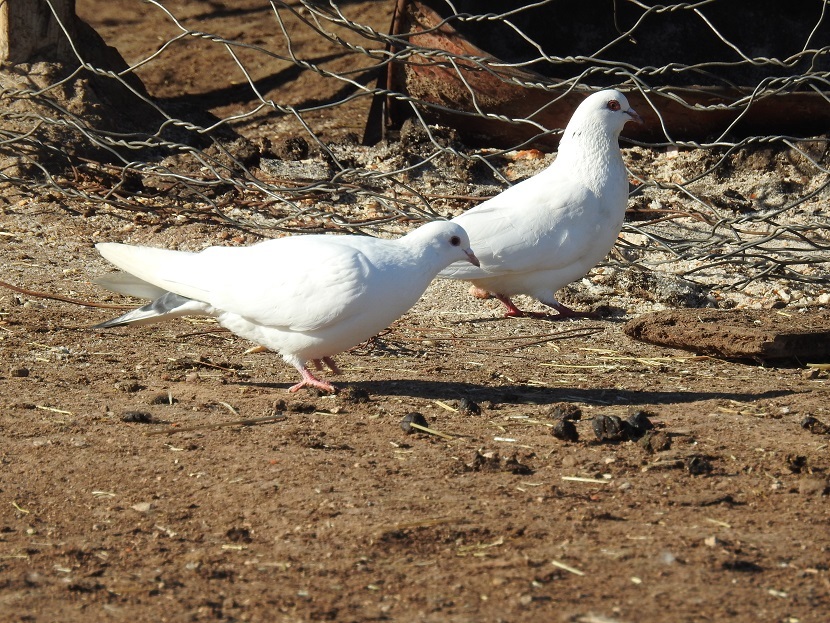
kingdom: Animalia
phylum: Chordata
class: Aves
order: Columbiformes
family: Columbidae
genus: Columba
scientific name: Columba livia
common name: Rock pigeon
